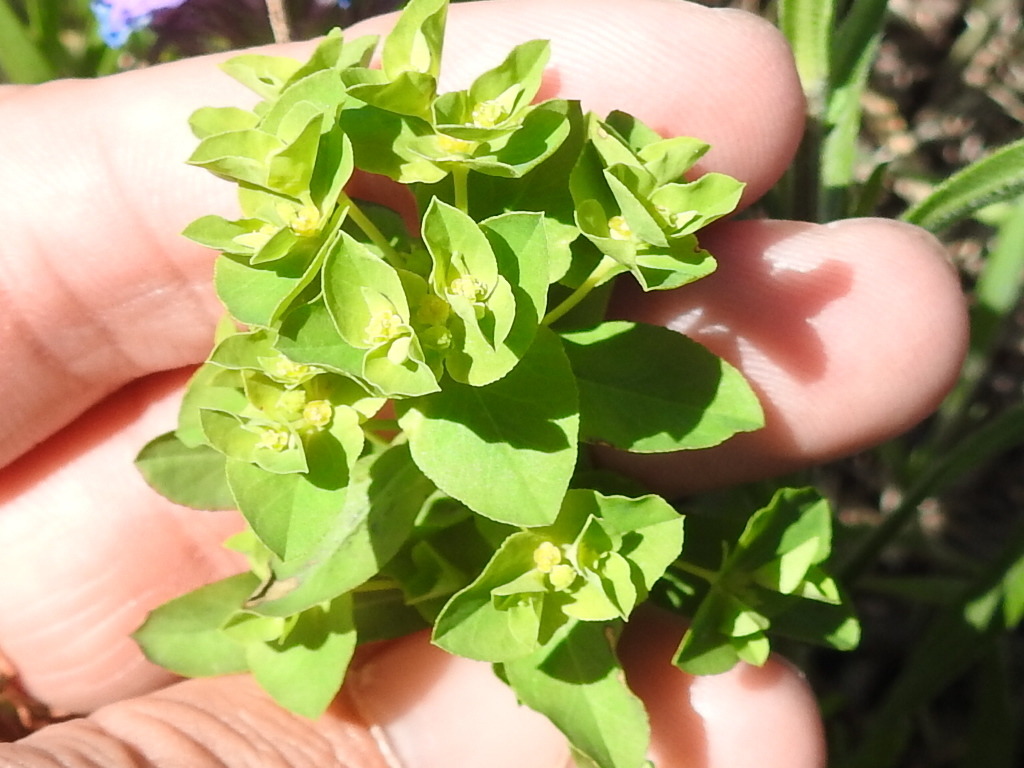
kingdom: Plantae
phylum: Tracheophyta
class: Magnoliopsida
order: Malpighiales
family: Euphorbiaceae
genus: Euphorbia
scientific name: Euphorbia spathulata
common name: Blunt spurge
